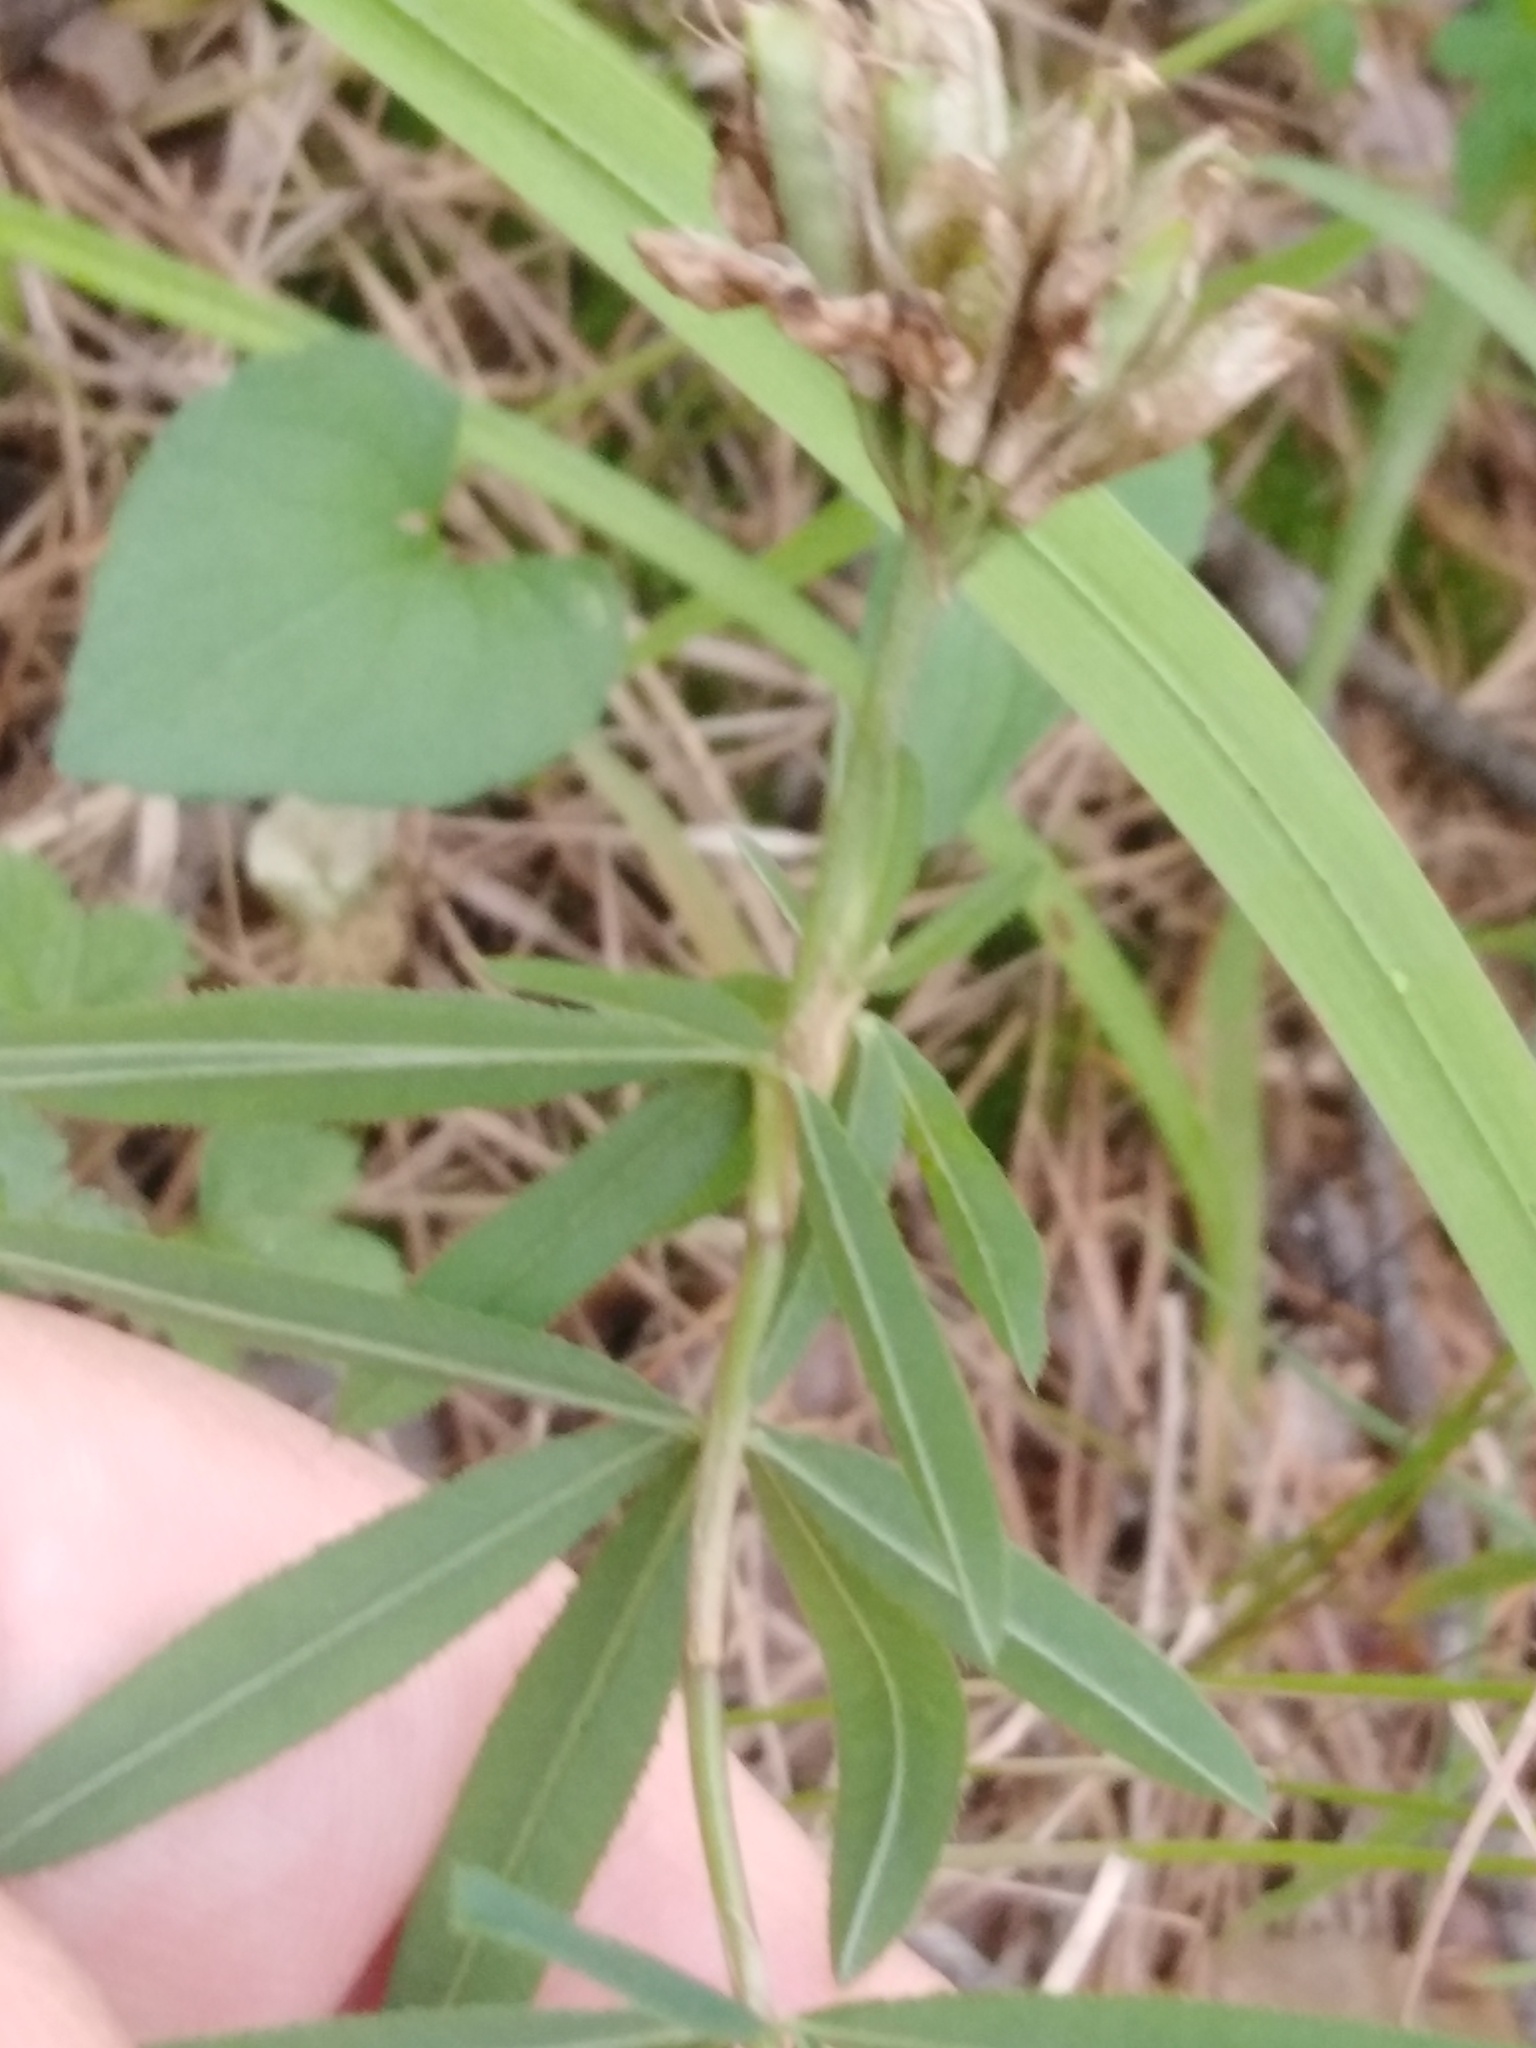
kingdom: Plantae
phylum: Tracheophyta
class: Magnoliopsida
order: Fabales
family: Fabaceae
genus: Trifolium
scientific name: Trifolium lupinaster
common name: Lupine clover
